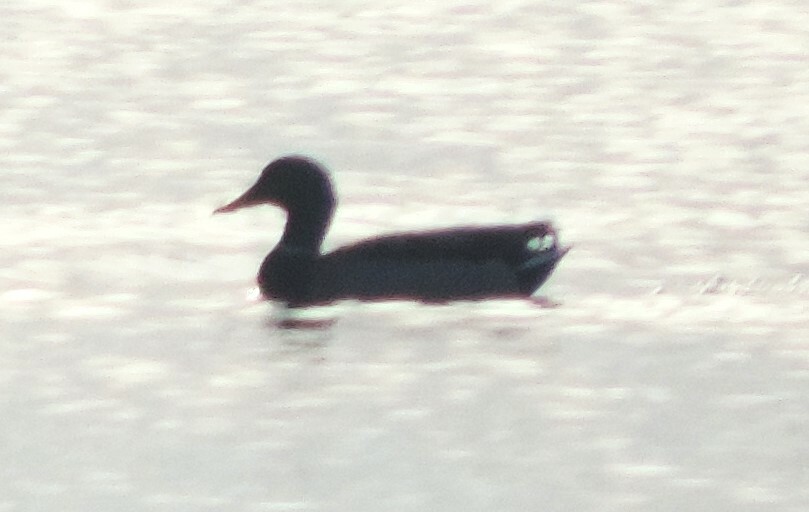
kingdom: Animalia
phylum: Chordata
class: Aves
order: Anseriformes
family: Anatidae
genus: Anas
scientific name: Anas platyrhynchos
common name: Mallard
